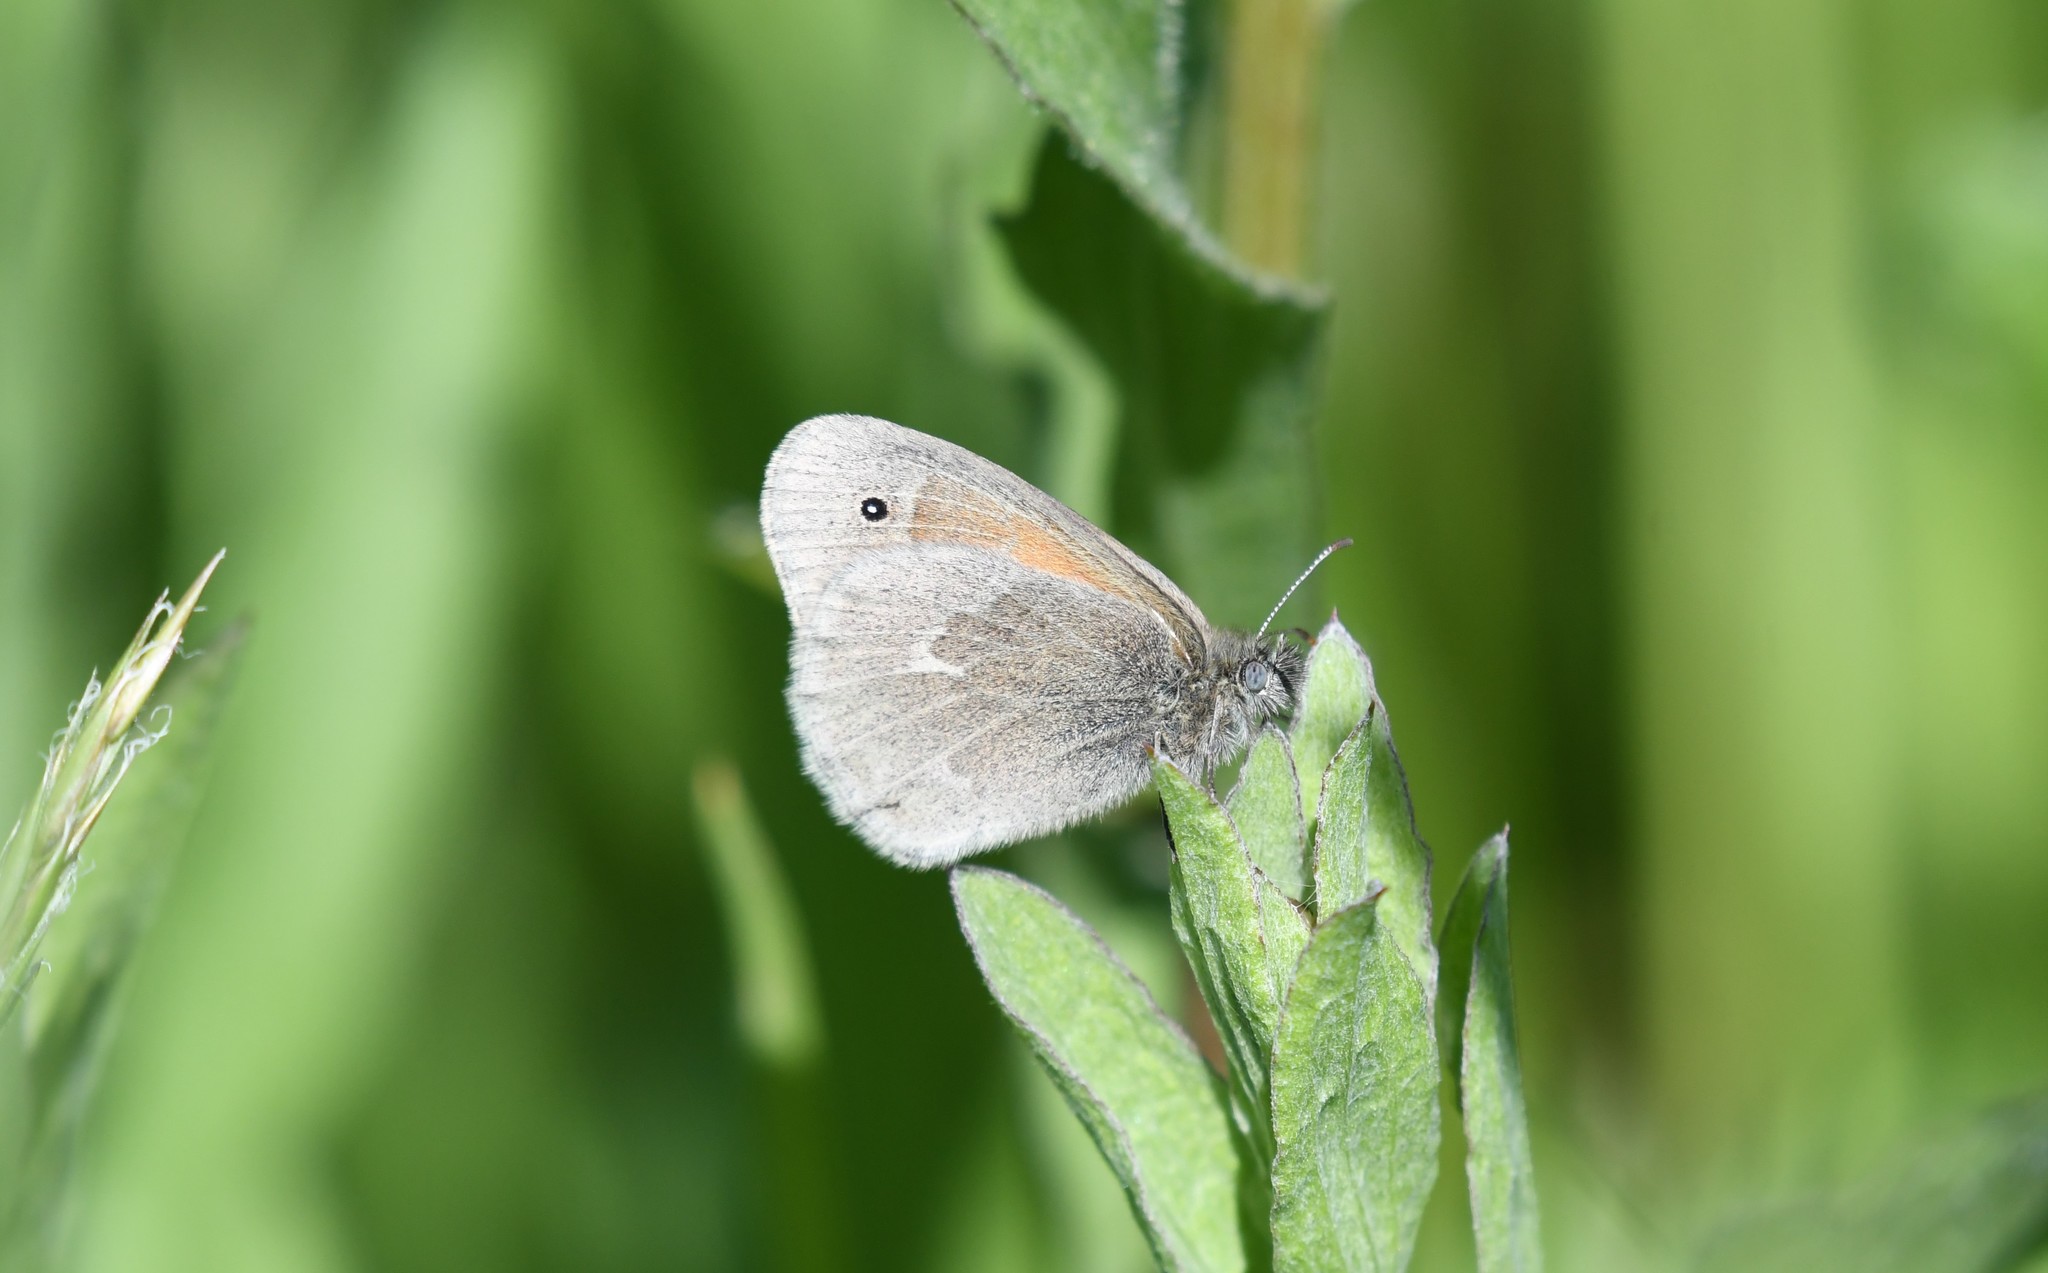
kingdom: Animalia
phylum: Arthropoda
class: Insecta
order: Lepidoptera
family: Nymphalidae
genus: Coenonympha
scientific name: Coenonympha california
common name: Common ringlet
